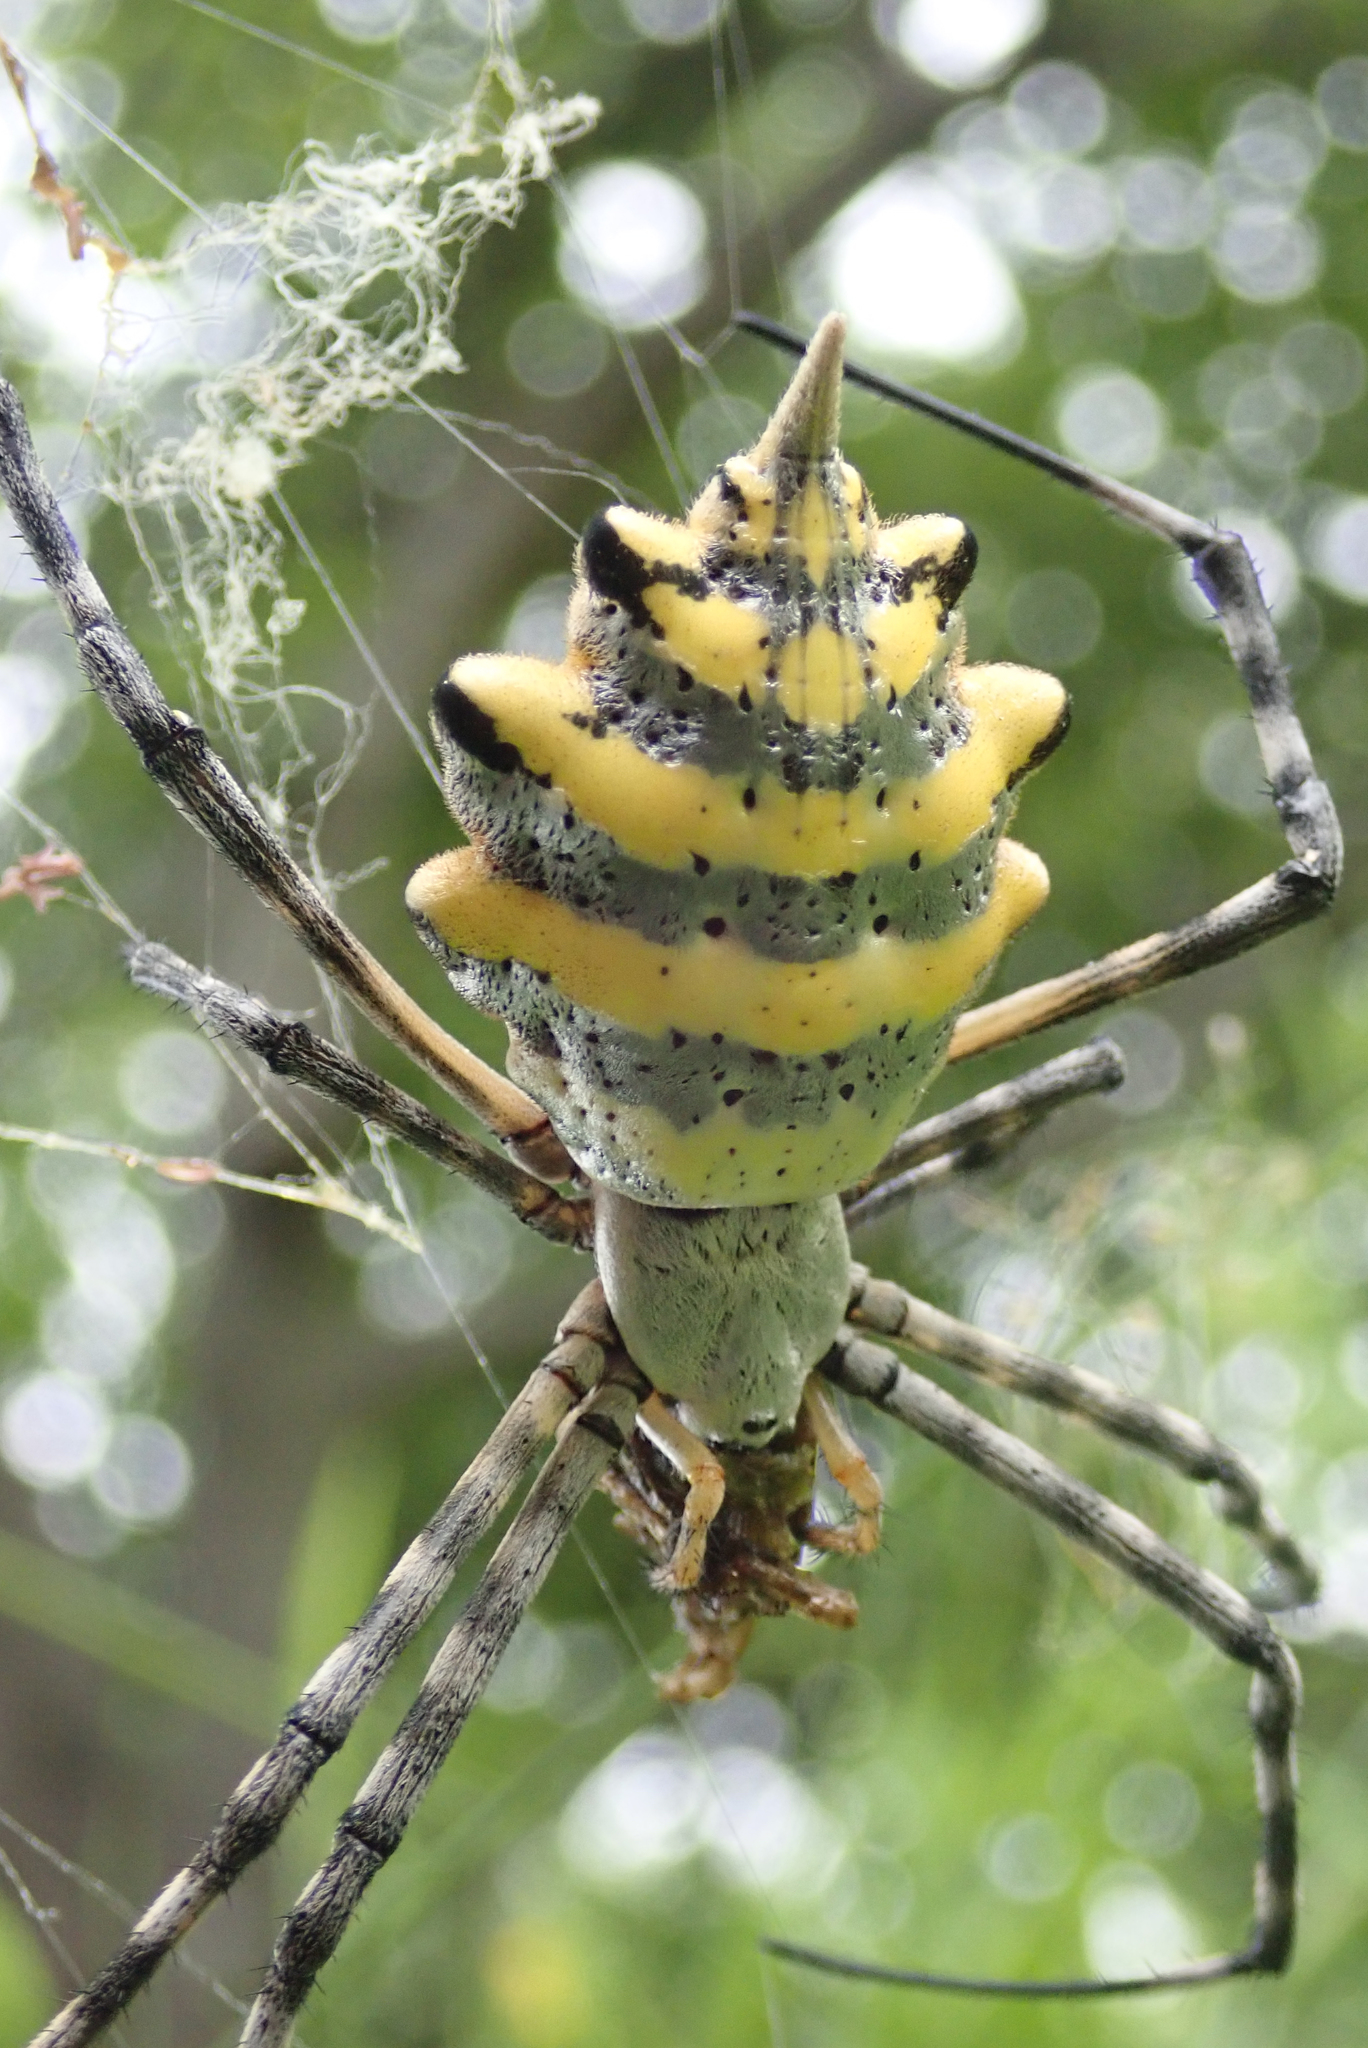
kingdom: Animalia
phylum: Arthropoda
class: Arachnida
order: Araneae
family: Araneidae
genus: Argiope
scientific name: Argiope australis
